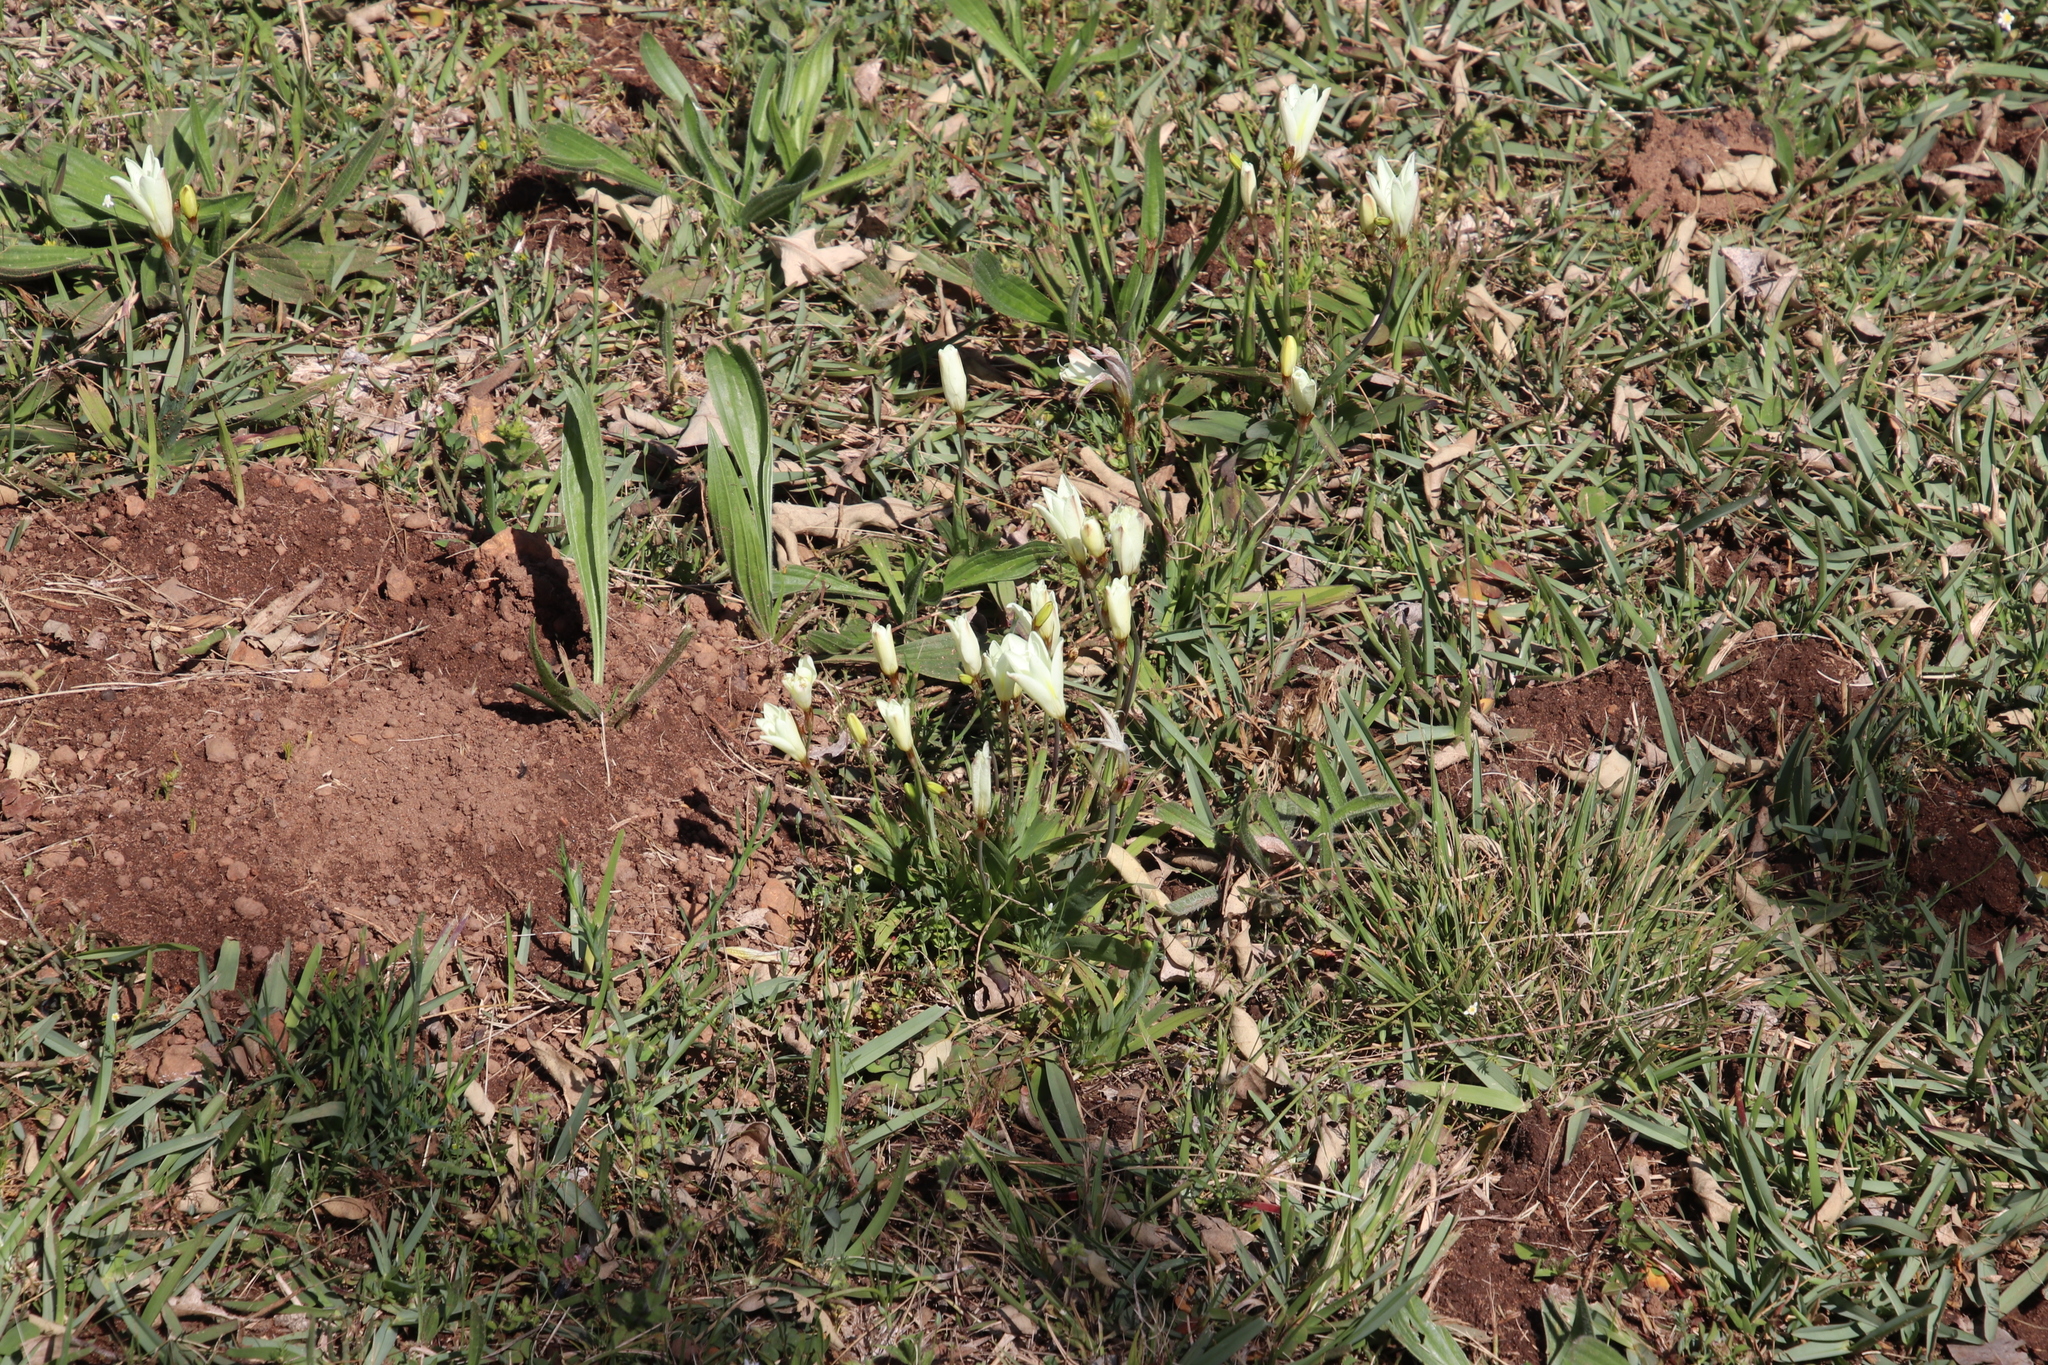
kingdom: Plantae
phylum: Tracheophyta
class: Liliopsida
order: Asparagales
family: Iridaceae
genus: Sparaxis
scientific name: Sparaxis bulbifera
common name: Harlequin-flower
